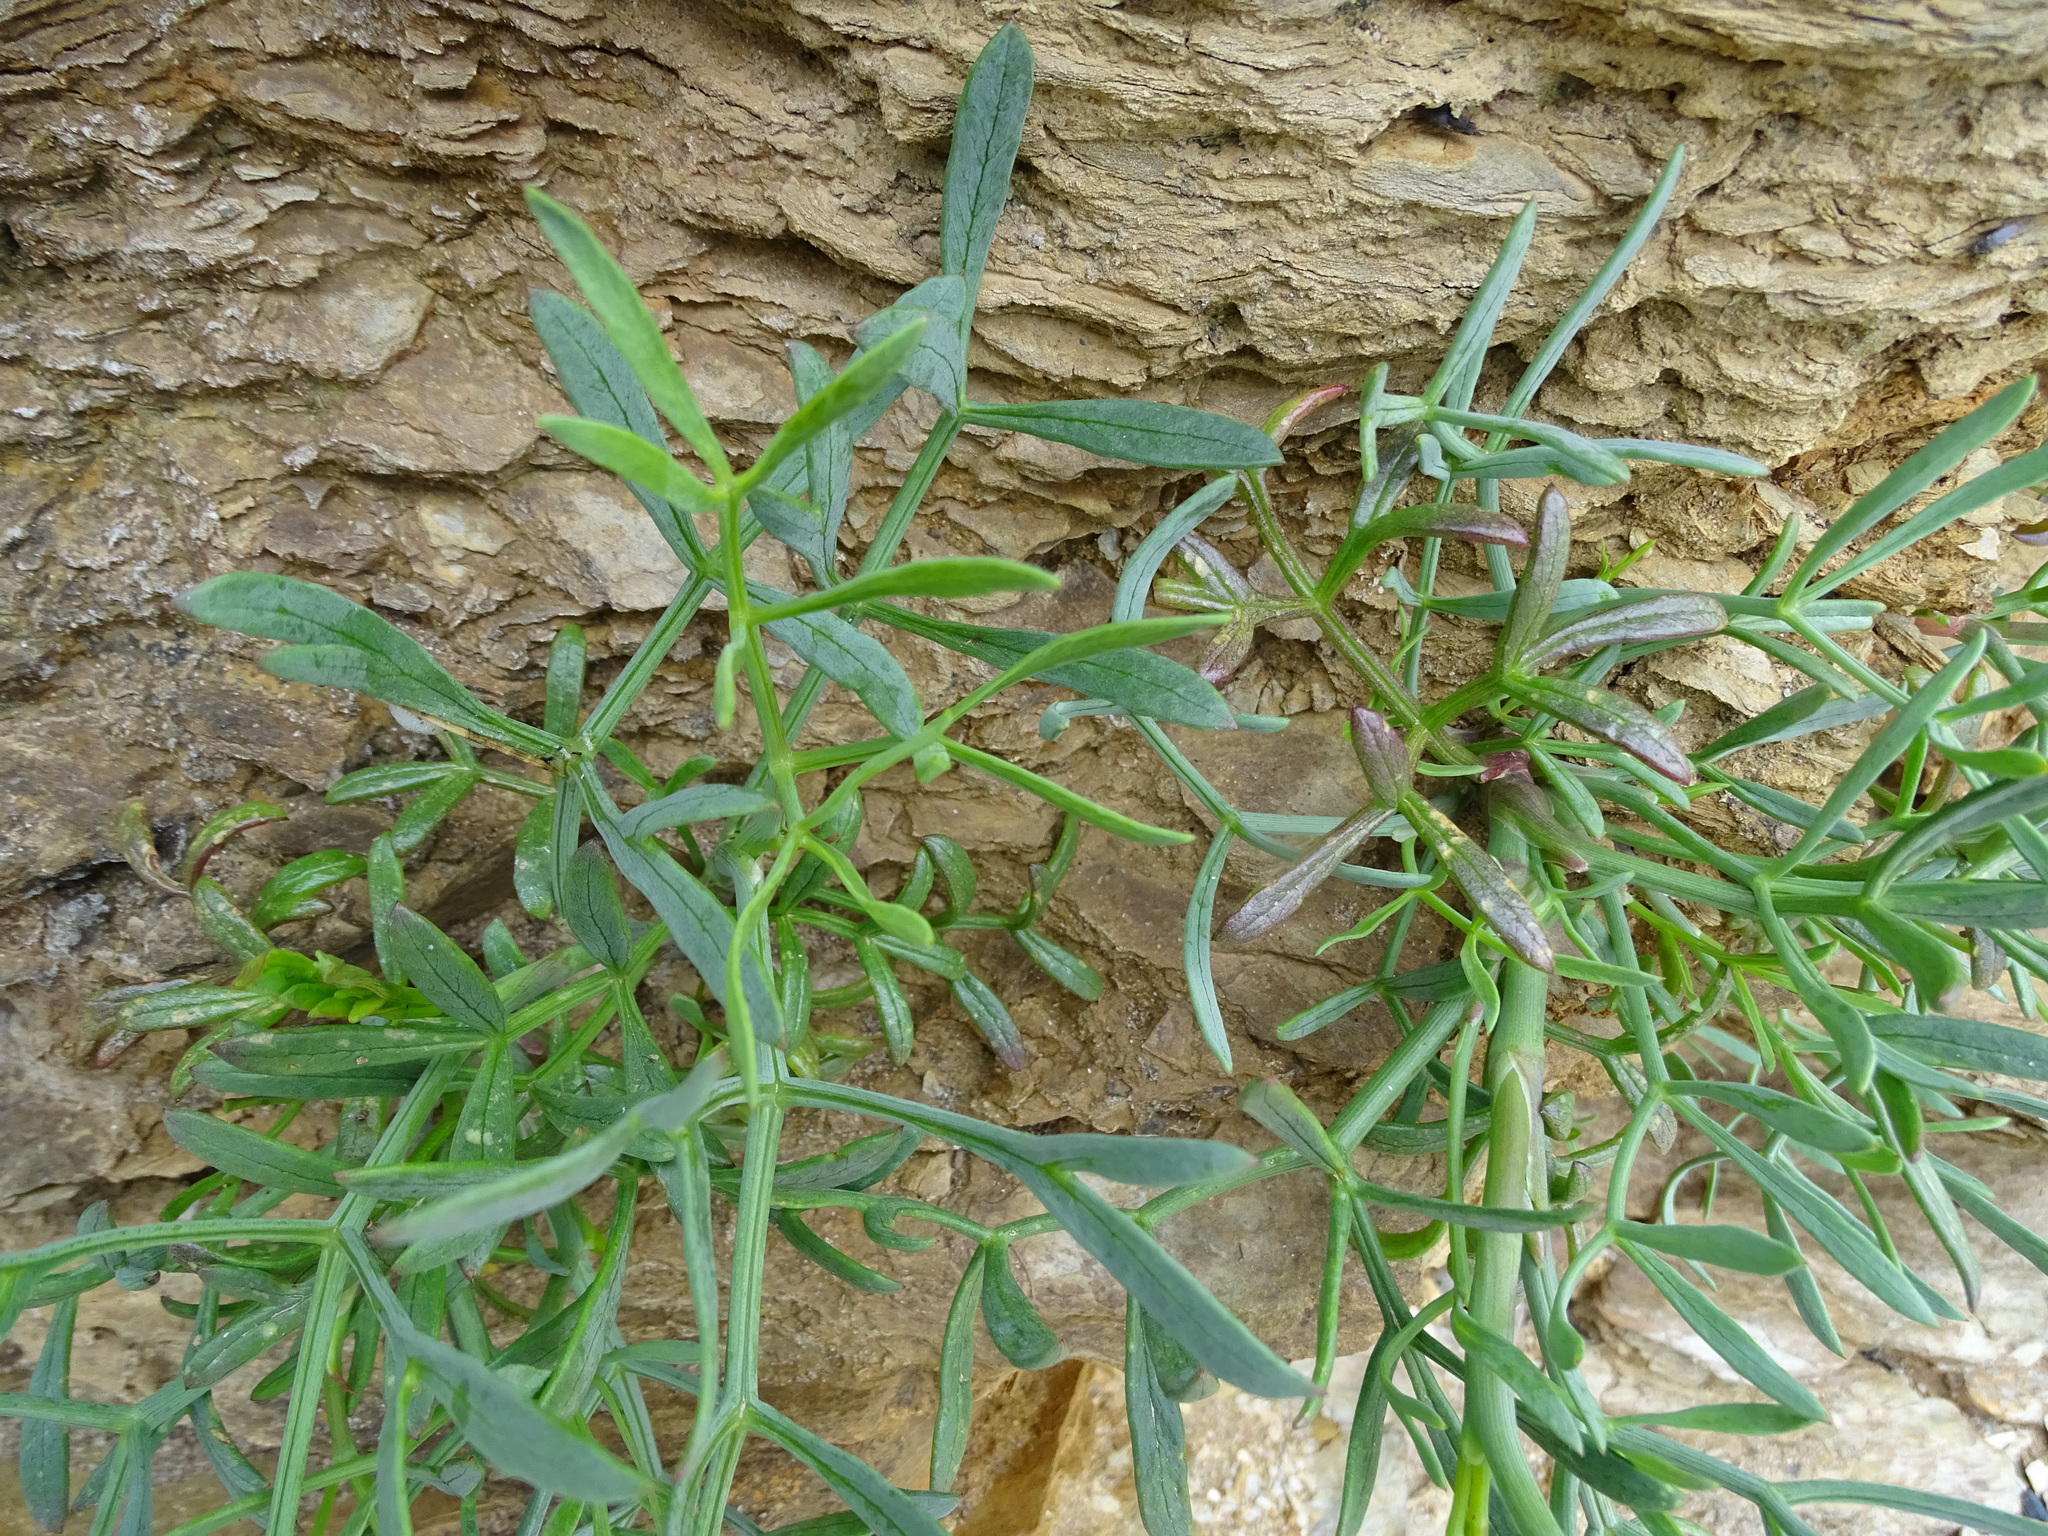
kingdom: Plantae
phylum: Tracheophyta
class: Magnoliopsida
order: Apiales
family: Apiaceae
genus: Crithmum
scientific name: Crithmum maritimum
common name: Rock samphire
